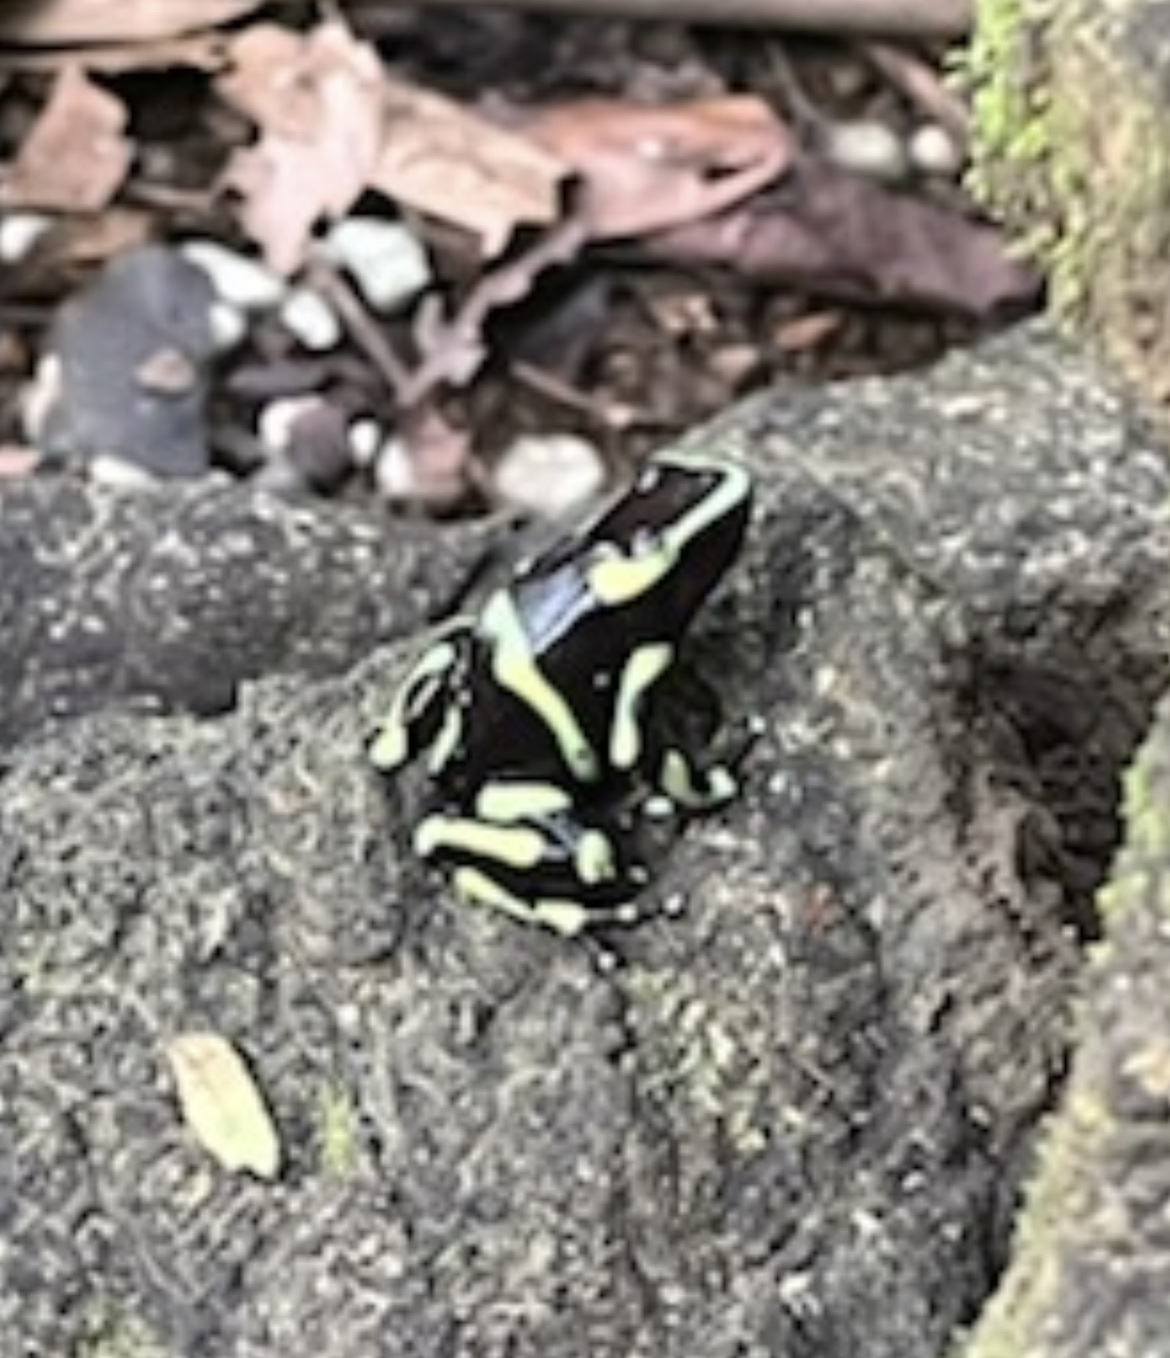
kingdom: Animalia
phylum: Chordata
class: Amphibia
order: Anura
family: Dendrobatidae
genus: Dendrobates
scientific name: Dendrobates auratus
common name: Green and black poison dart frog
